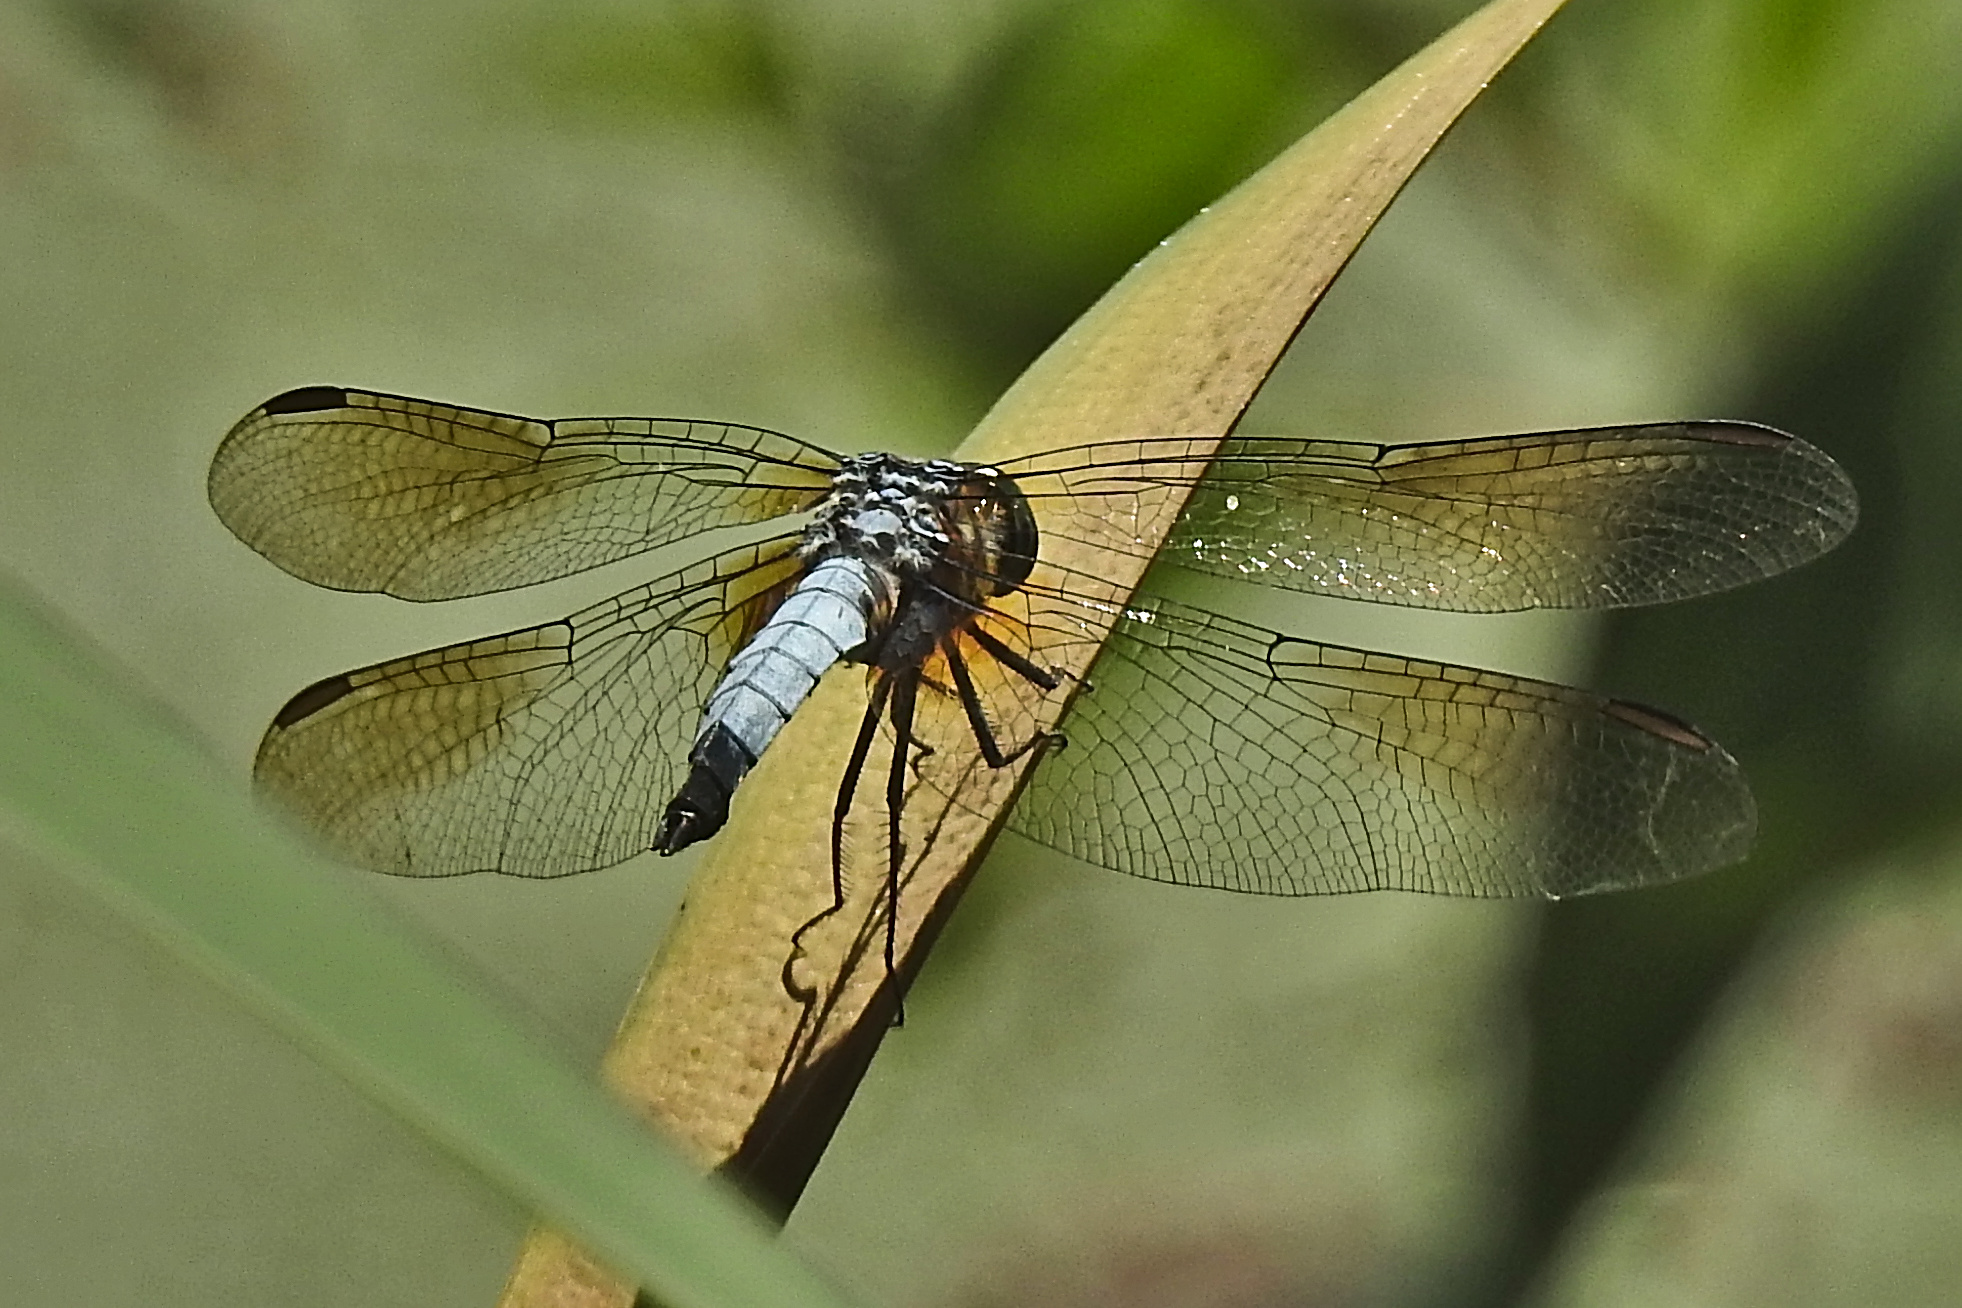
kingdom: Animalia
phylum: Arthropoda
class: Insecta
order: Odonata
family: Libellulidae
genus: Pachydiplax
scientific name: Pachydiplax longipennis
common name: Blue dasher
